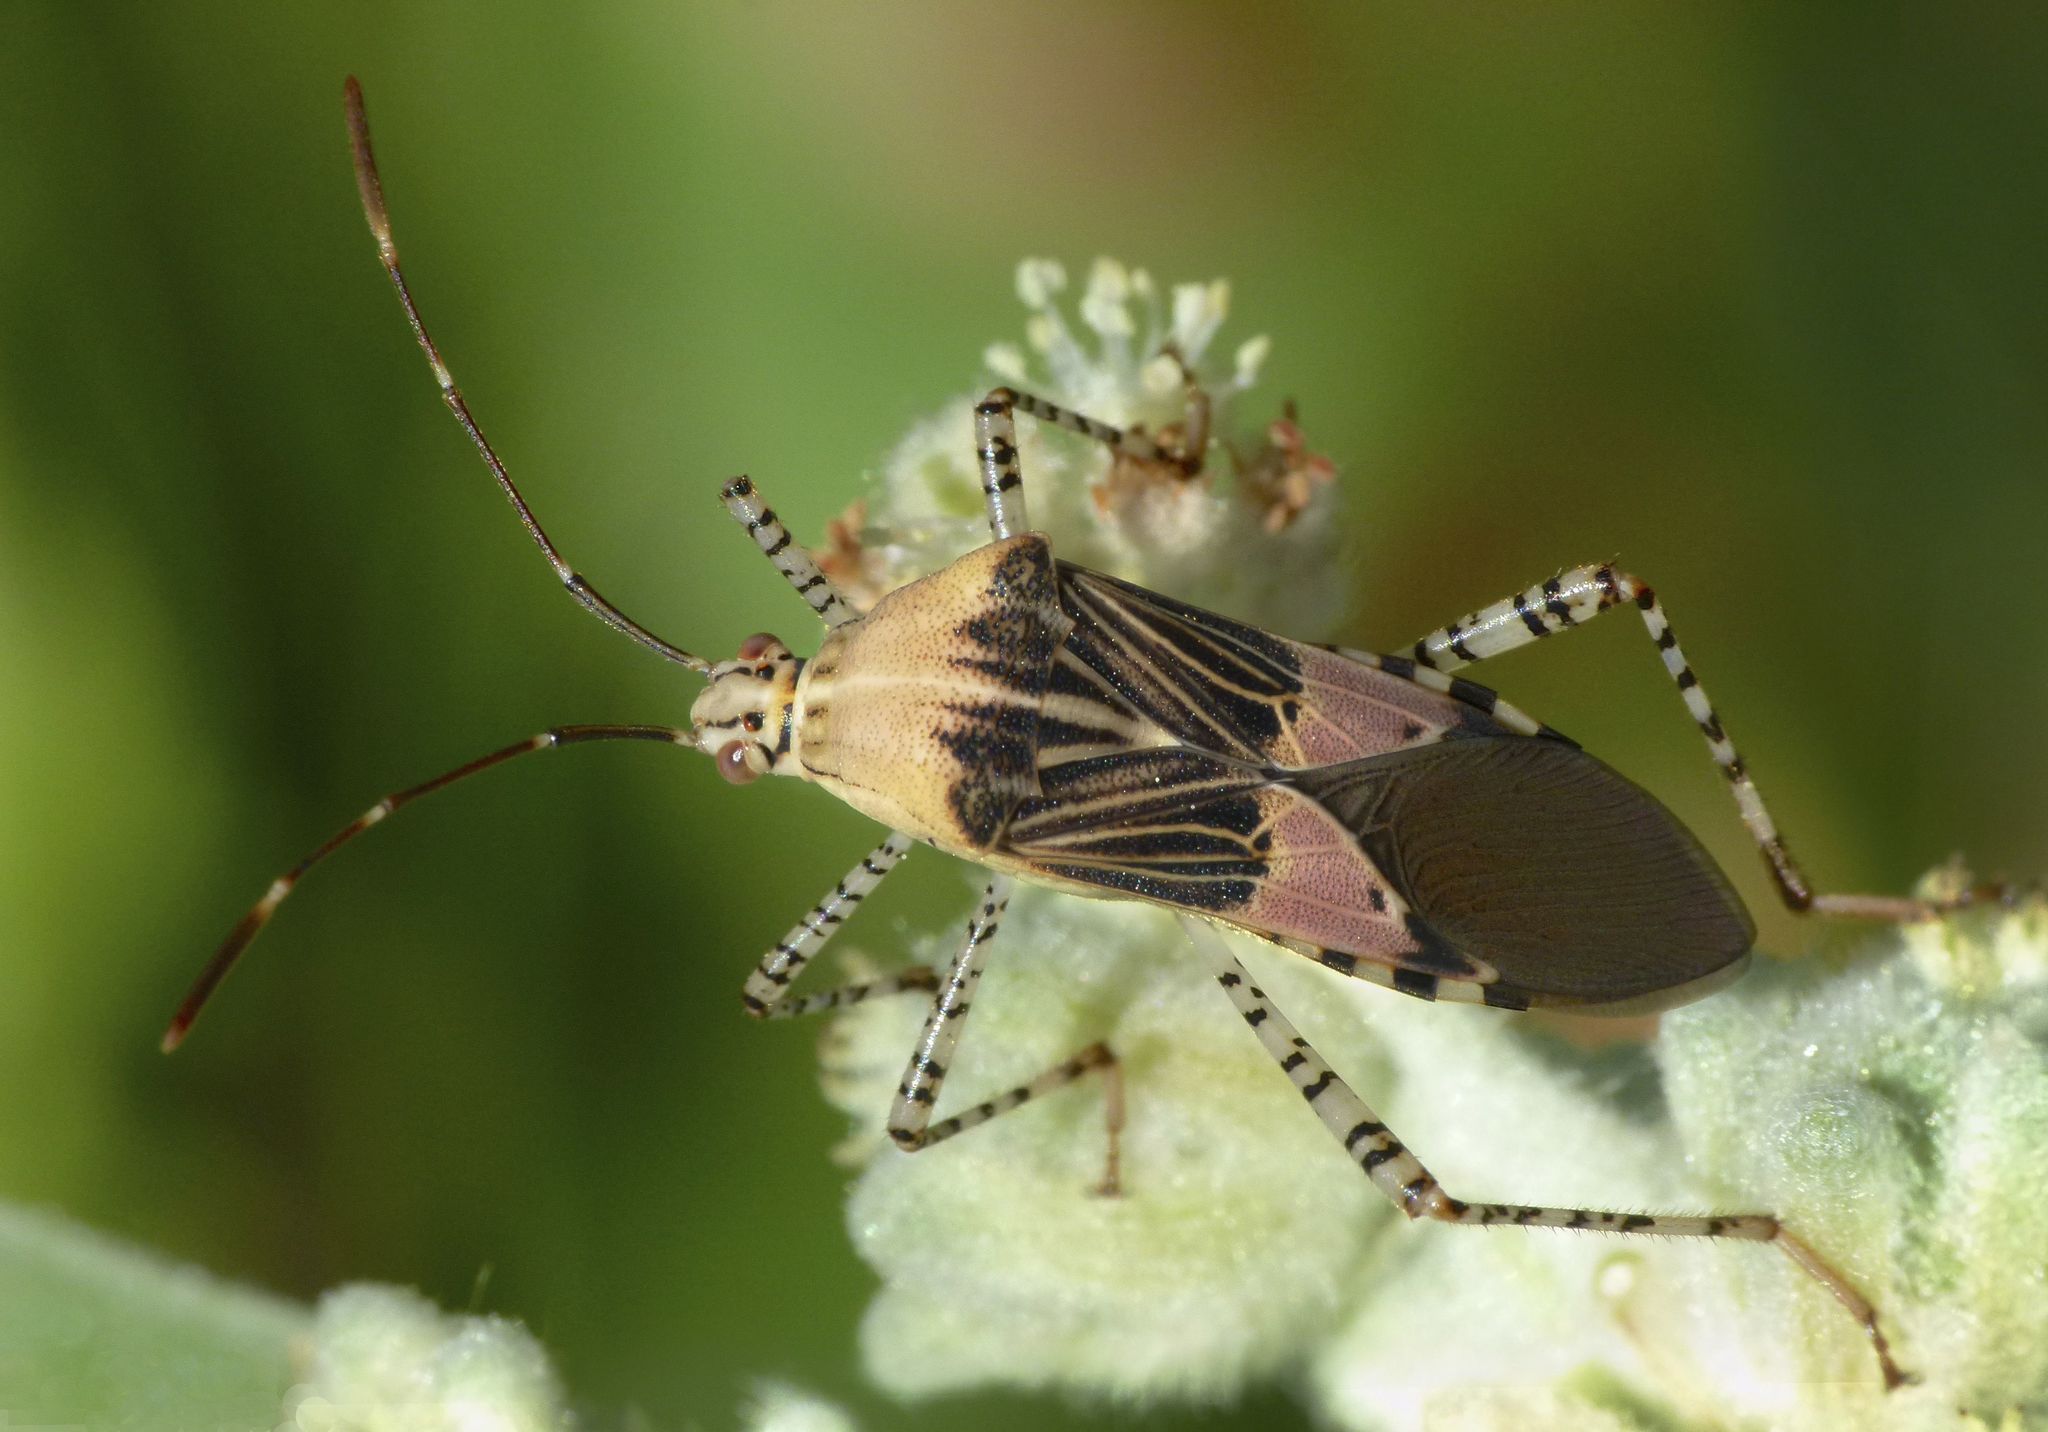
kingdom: Animalia
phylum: Arthropoda
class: Insecta
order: Hemiptera
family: Coreidae
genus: Hypselonotus
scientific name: Hypselonotus punctiventris
